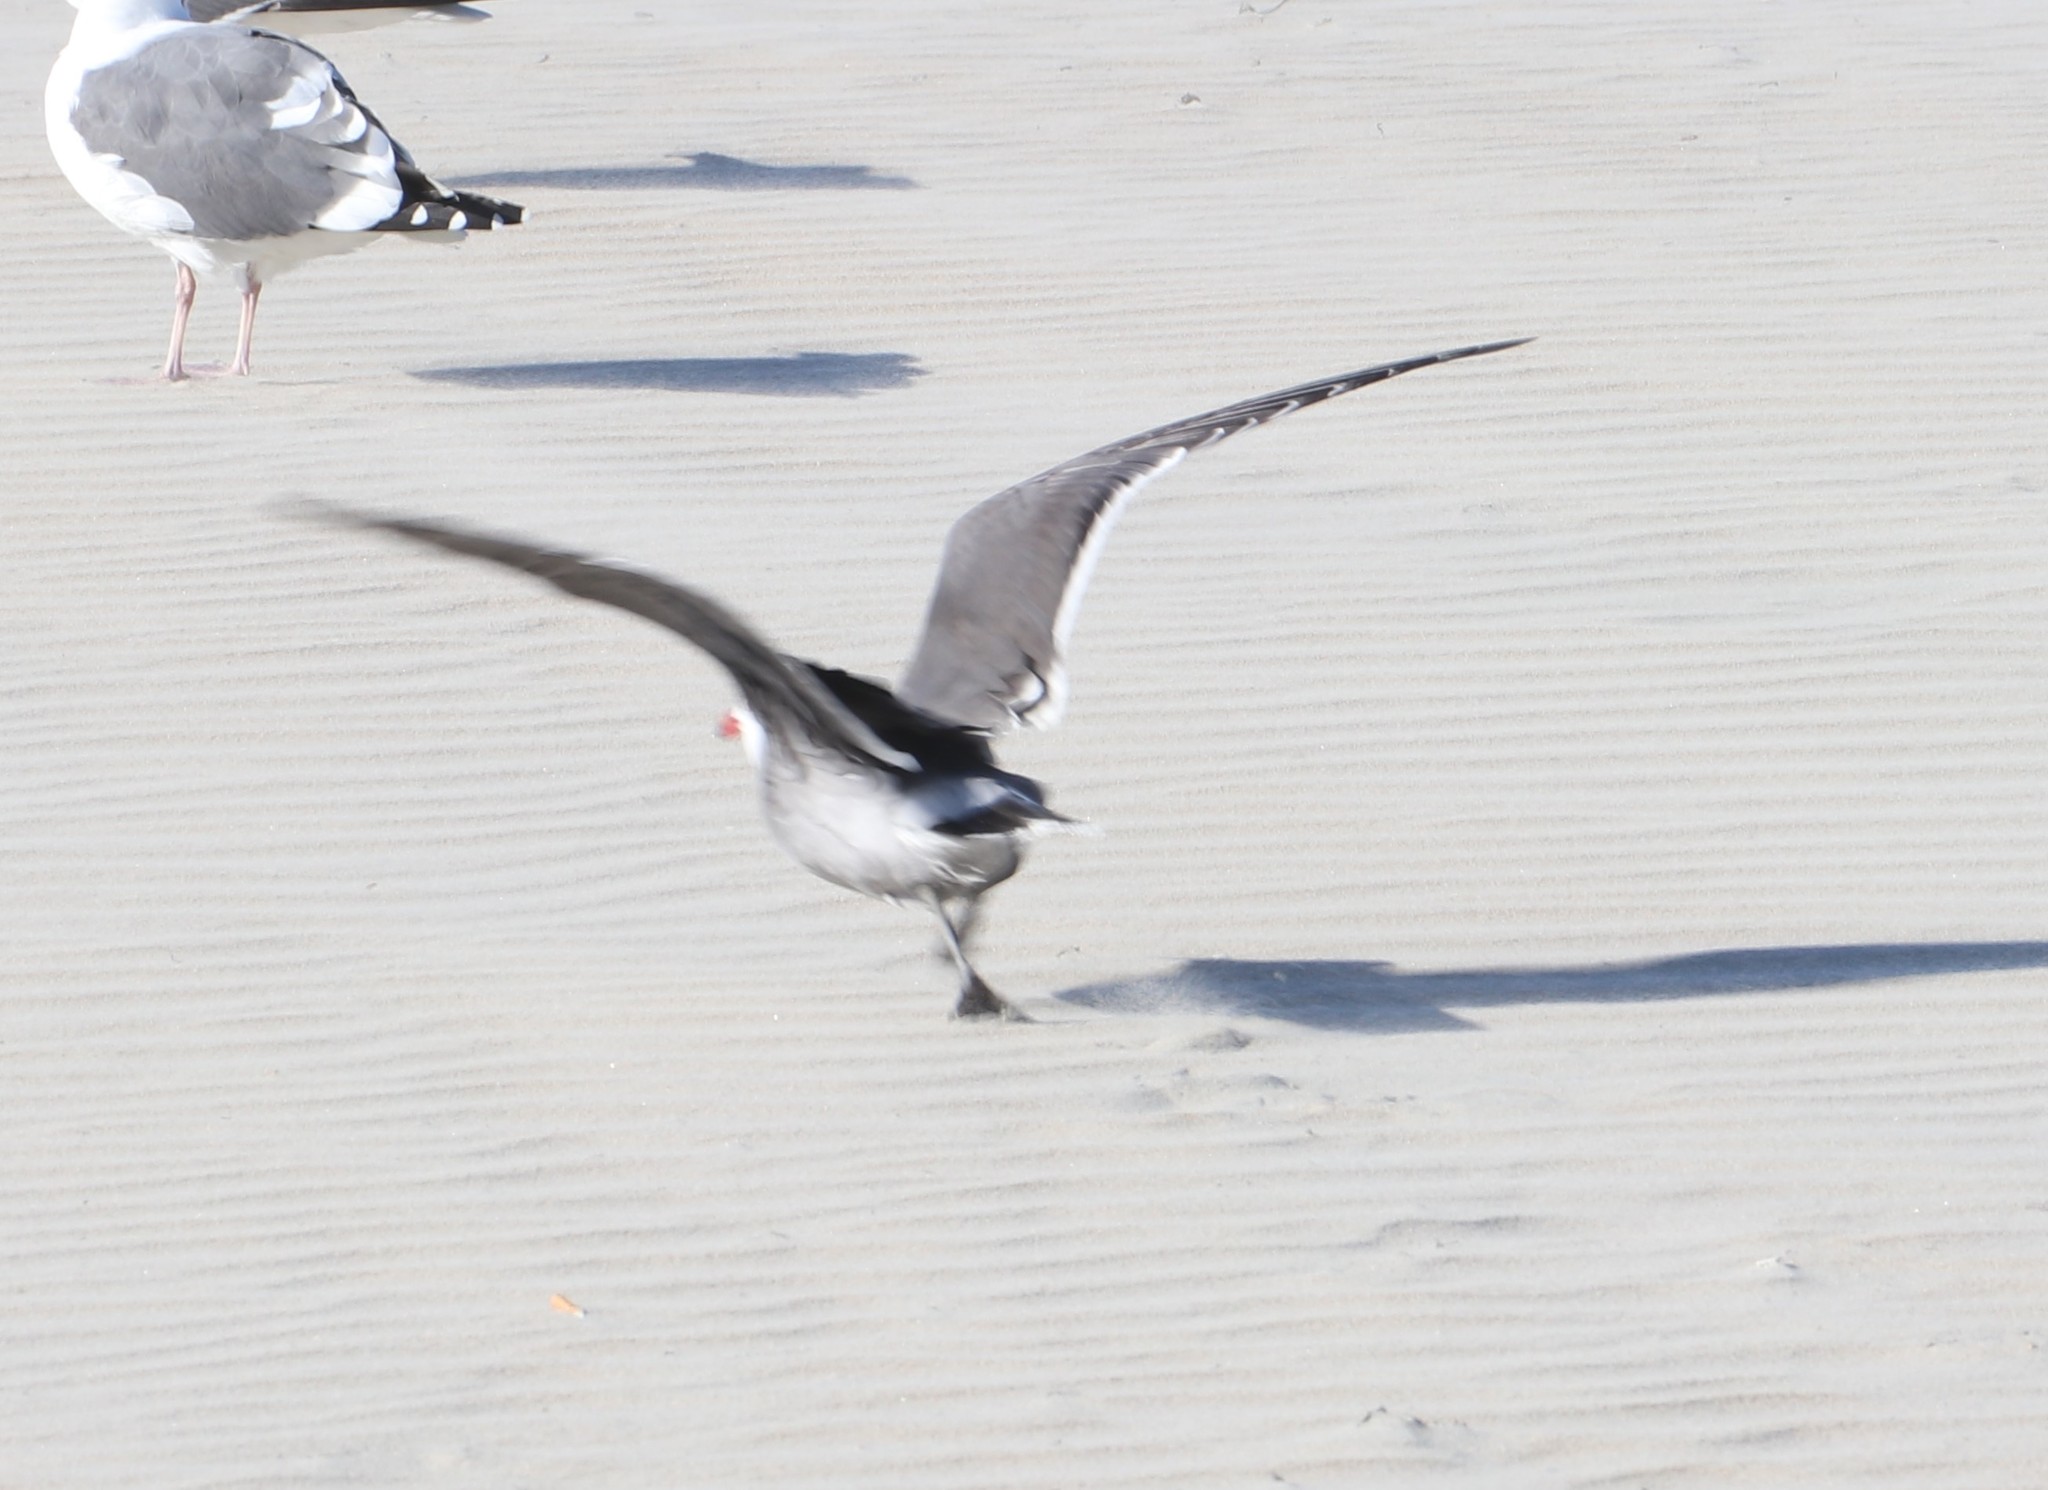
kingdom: Animalia
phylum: Chordata
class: Aves
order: Charadriiformes
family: Laridae
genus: Larus
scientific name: Larus heermanni
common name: Heermann's gull
